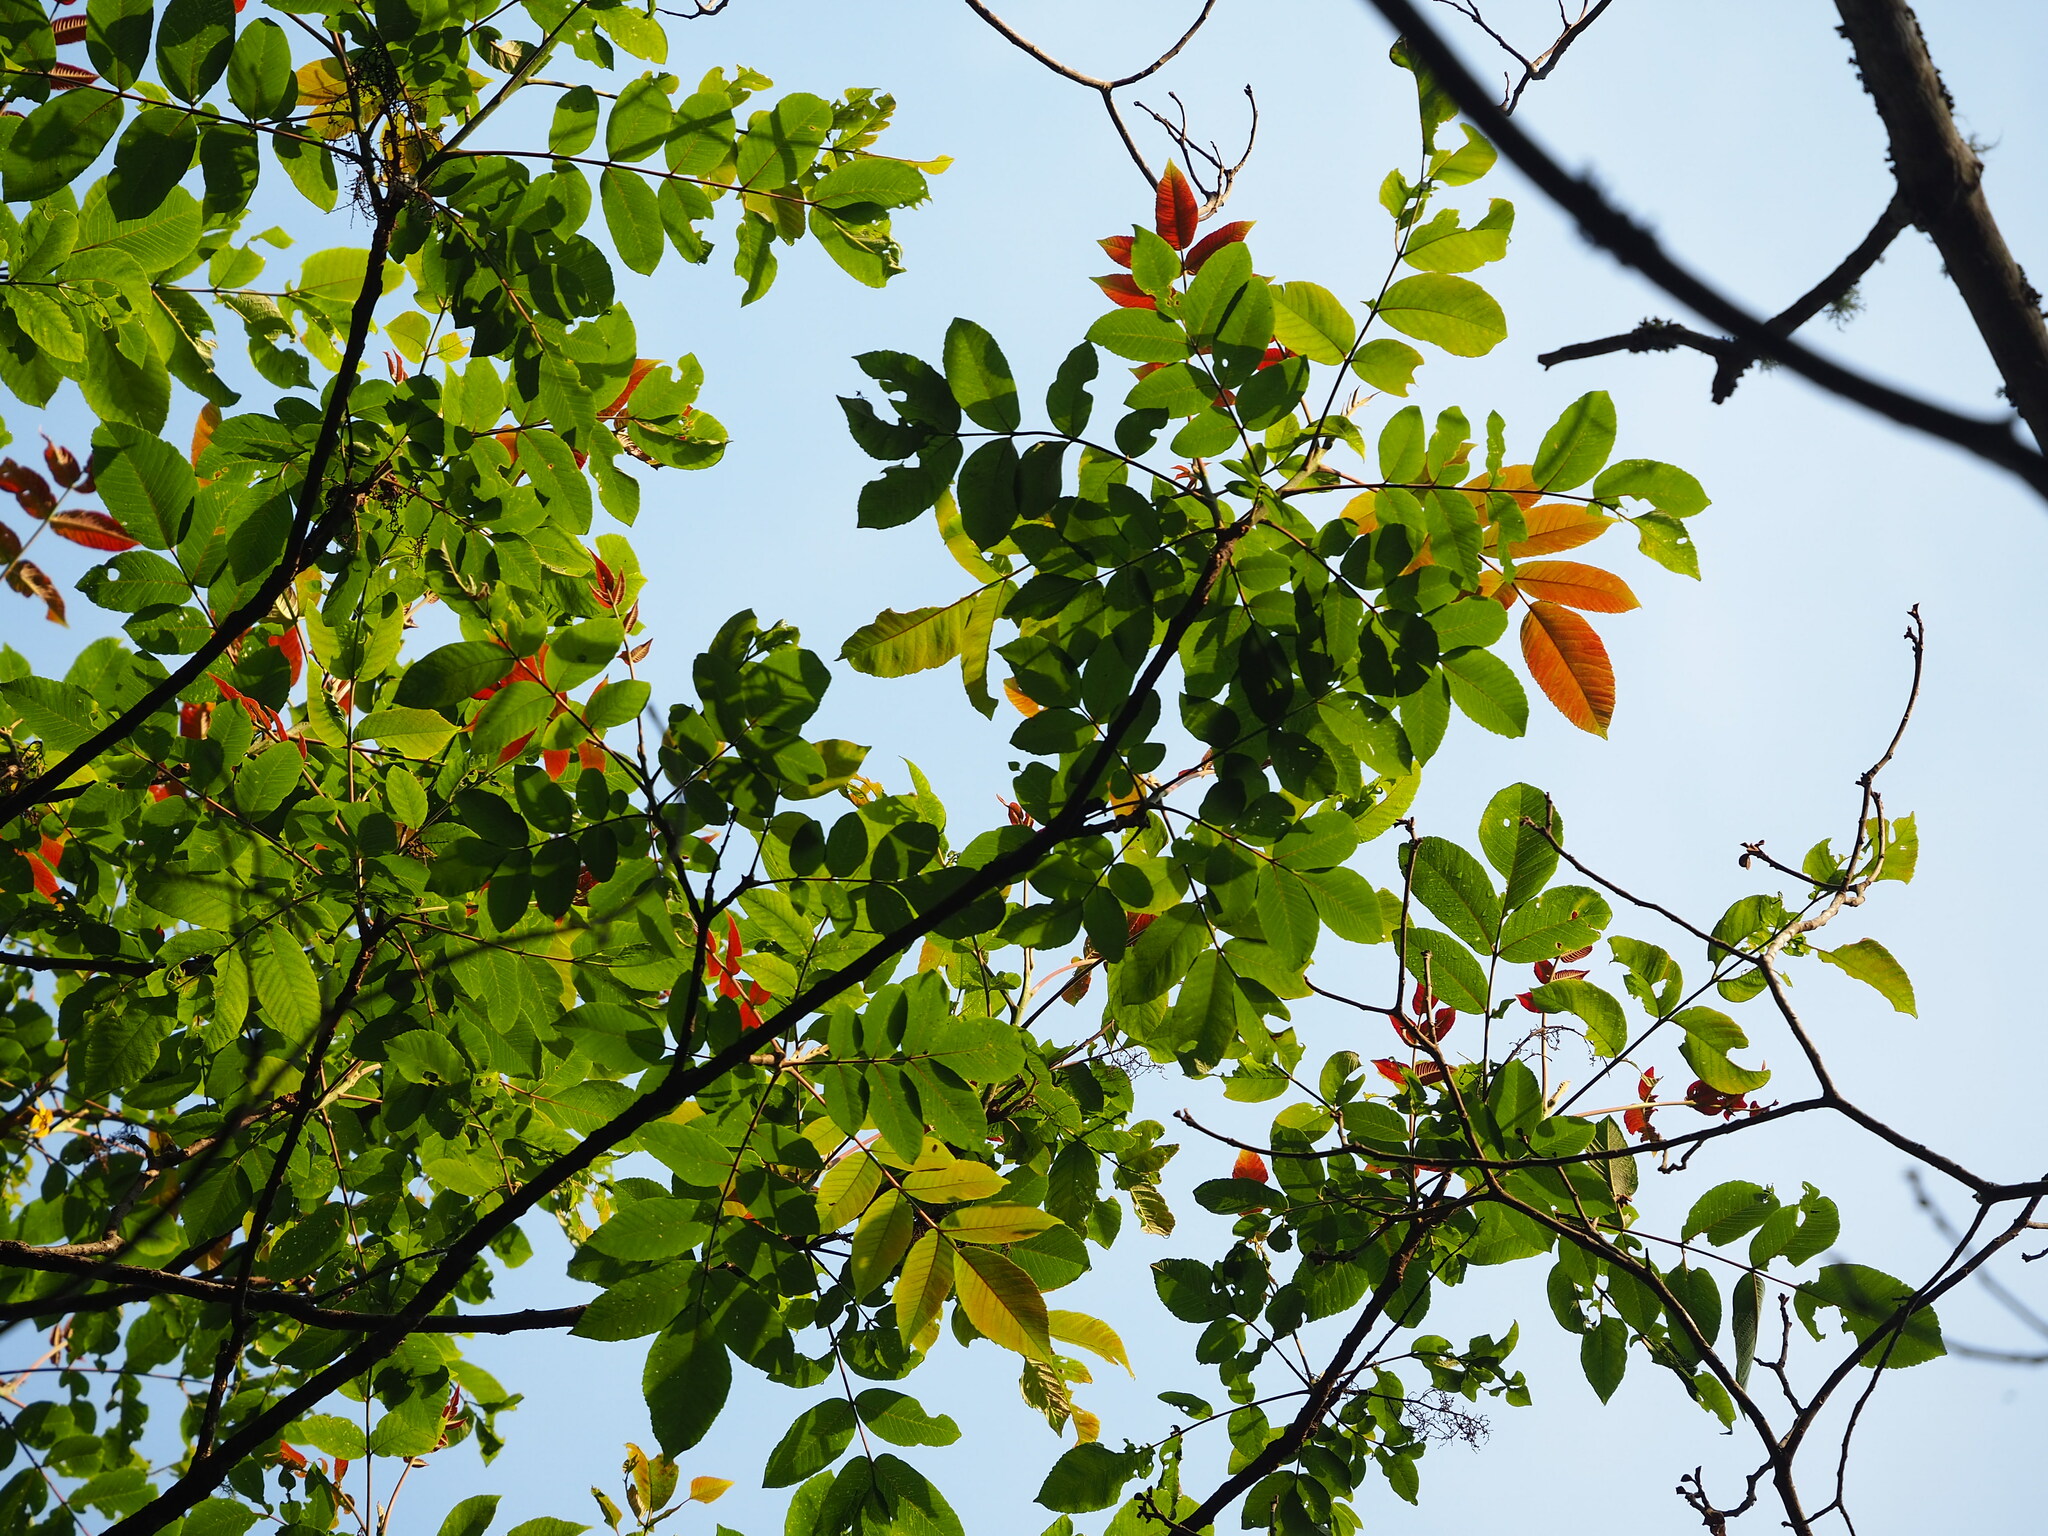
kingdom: Plantae
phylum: Tracheophyta
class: Magnoliopsida
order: Sapindales
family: Anacardiaceae
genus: Rhus
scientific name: Rhus chinensis
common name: Chinese gall
